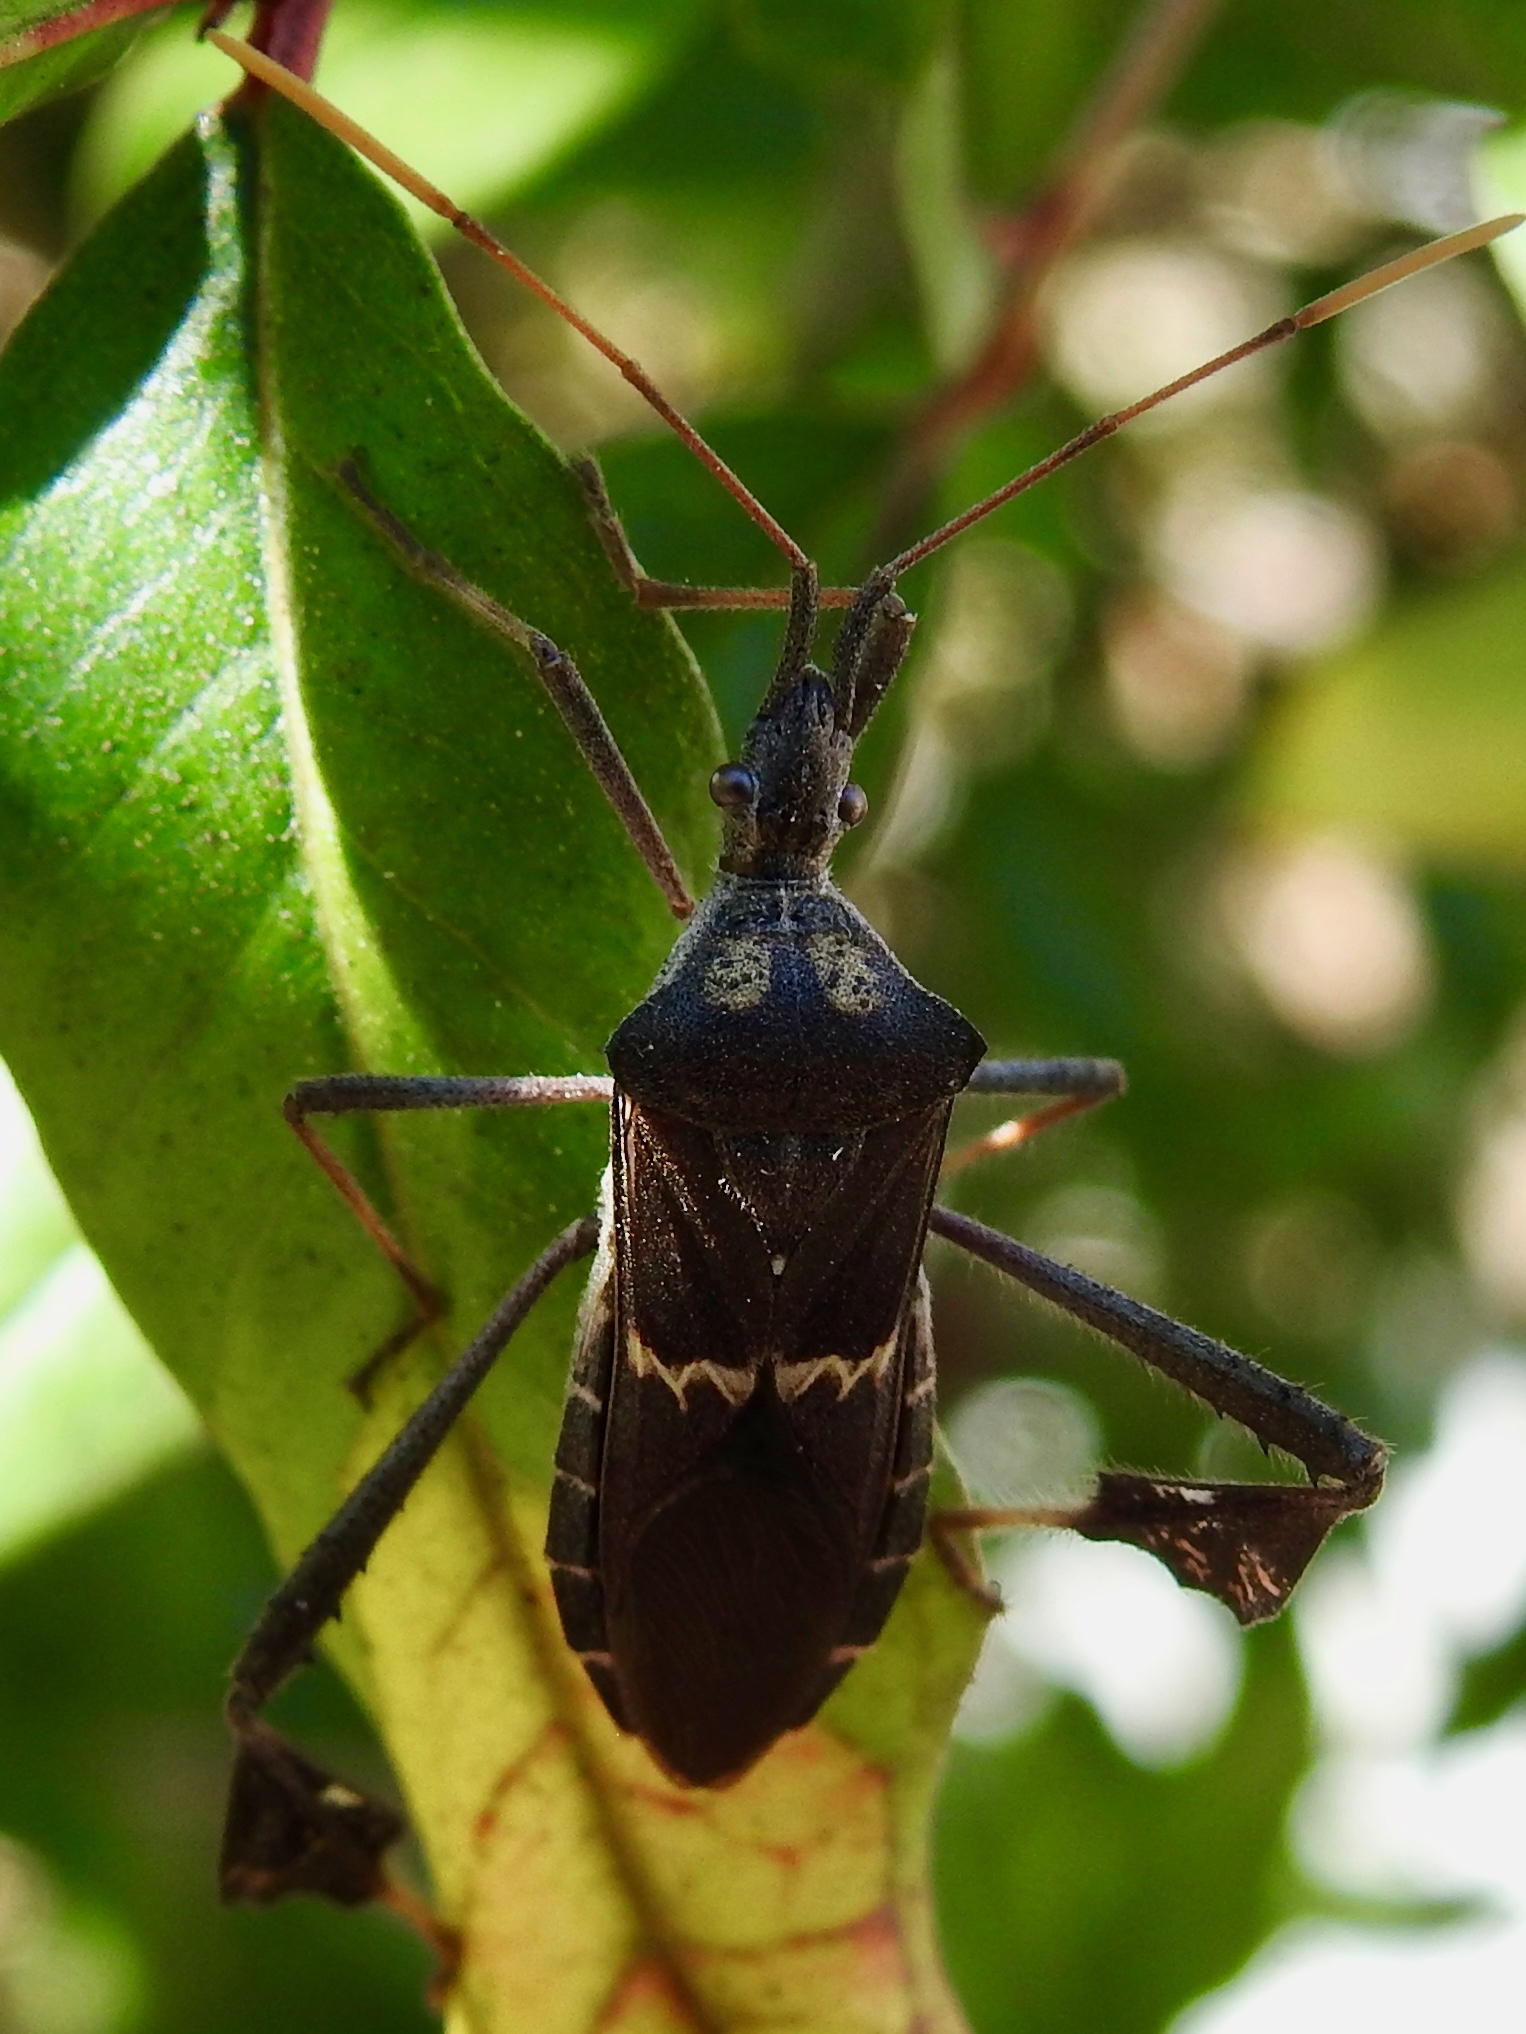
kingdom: Animalia
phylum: Arthropoda
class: Insecta
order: Hemiptera
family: Coreidae
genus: Leptoglossus
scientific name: Leptoglossus zonatus
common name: Large-legged bug
